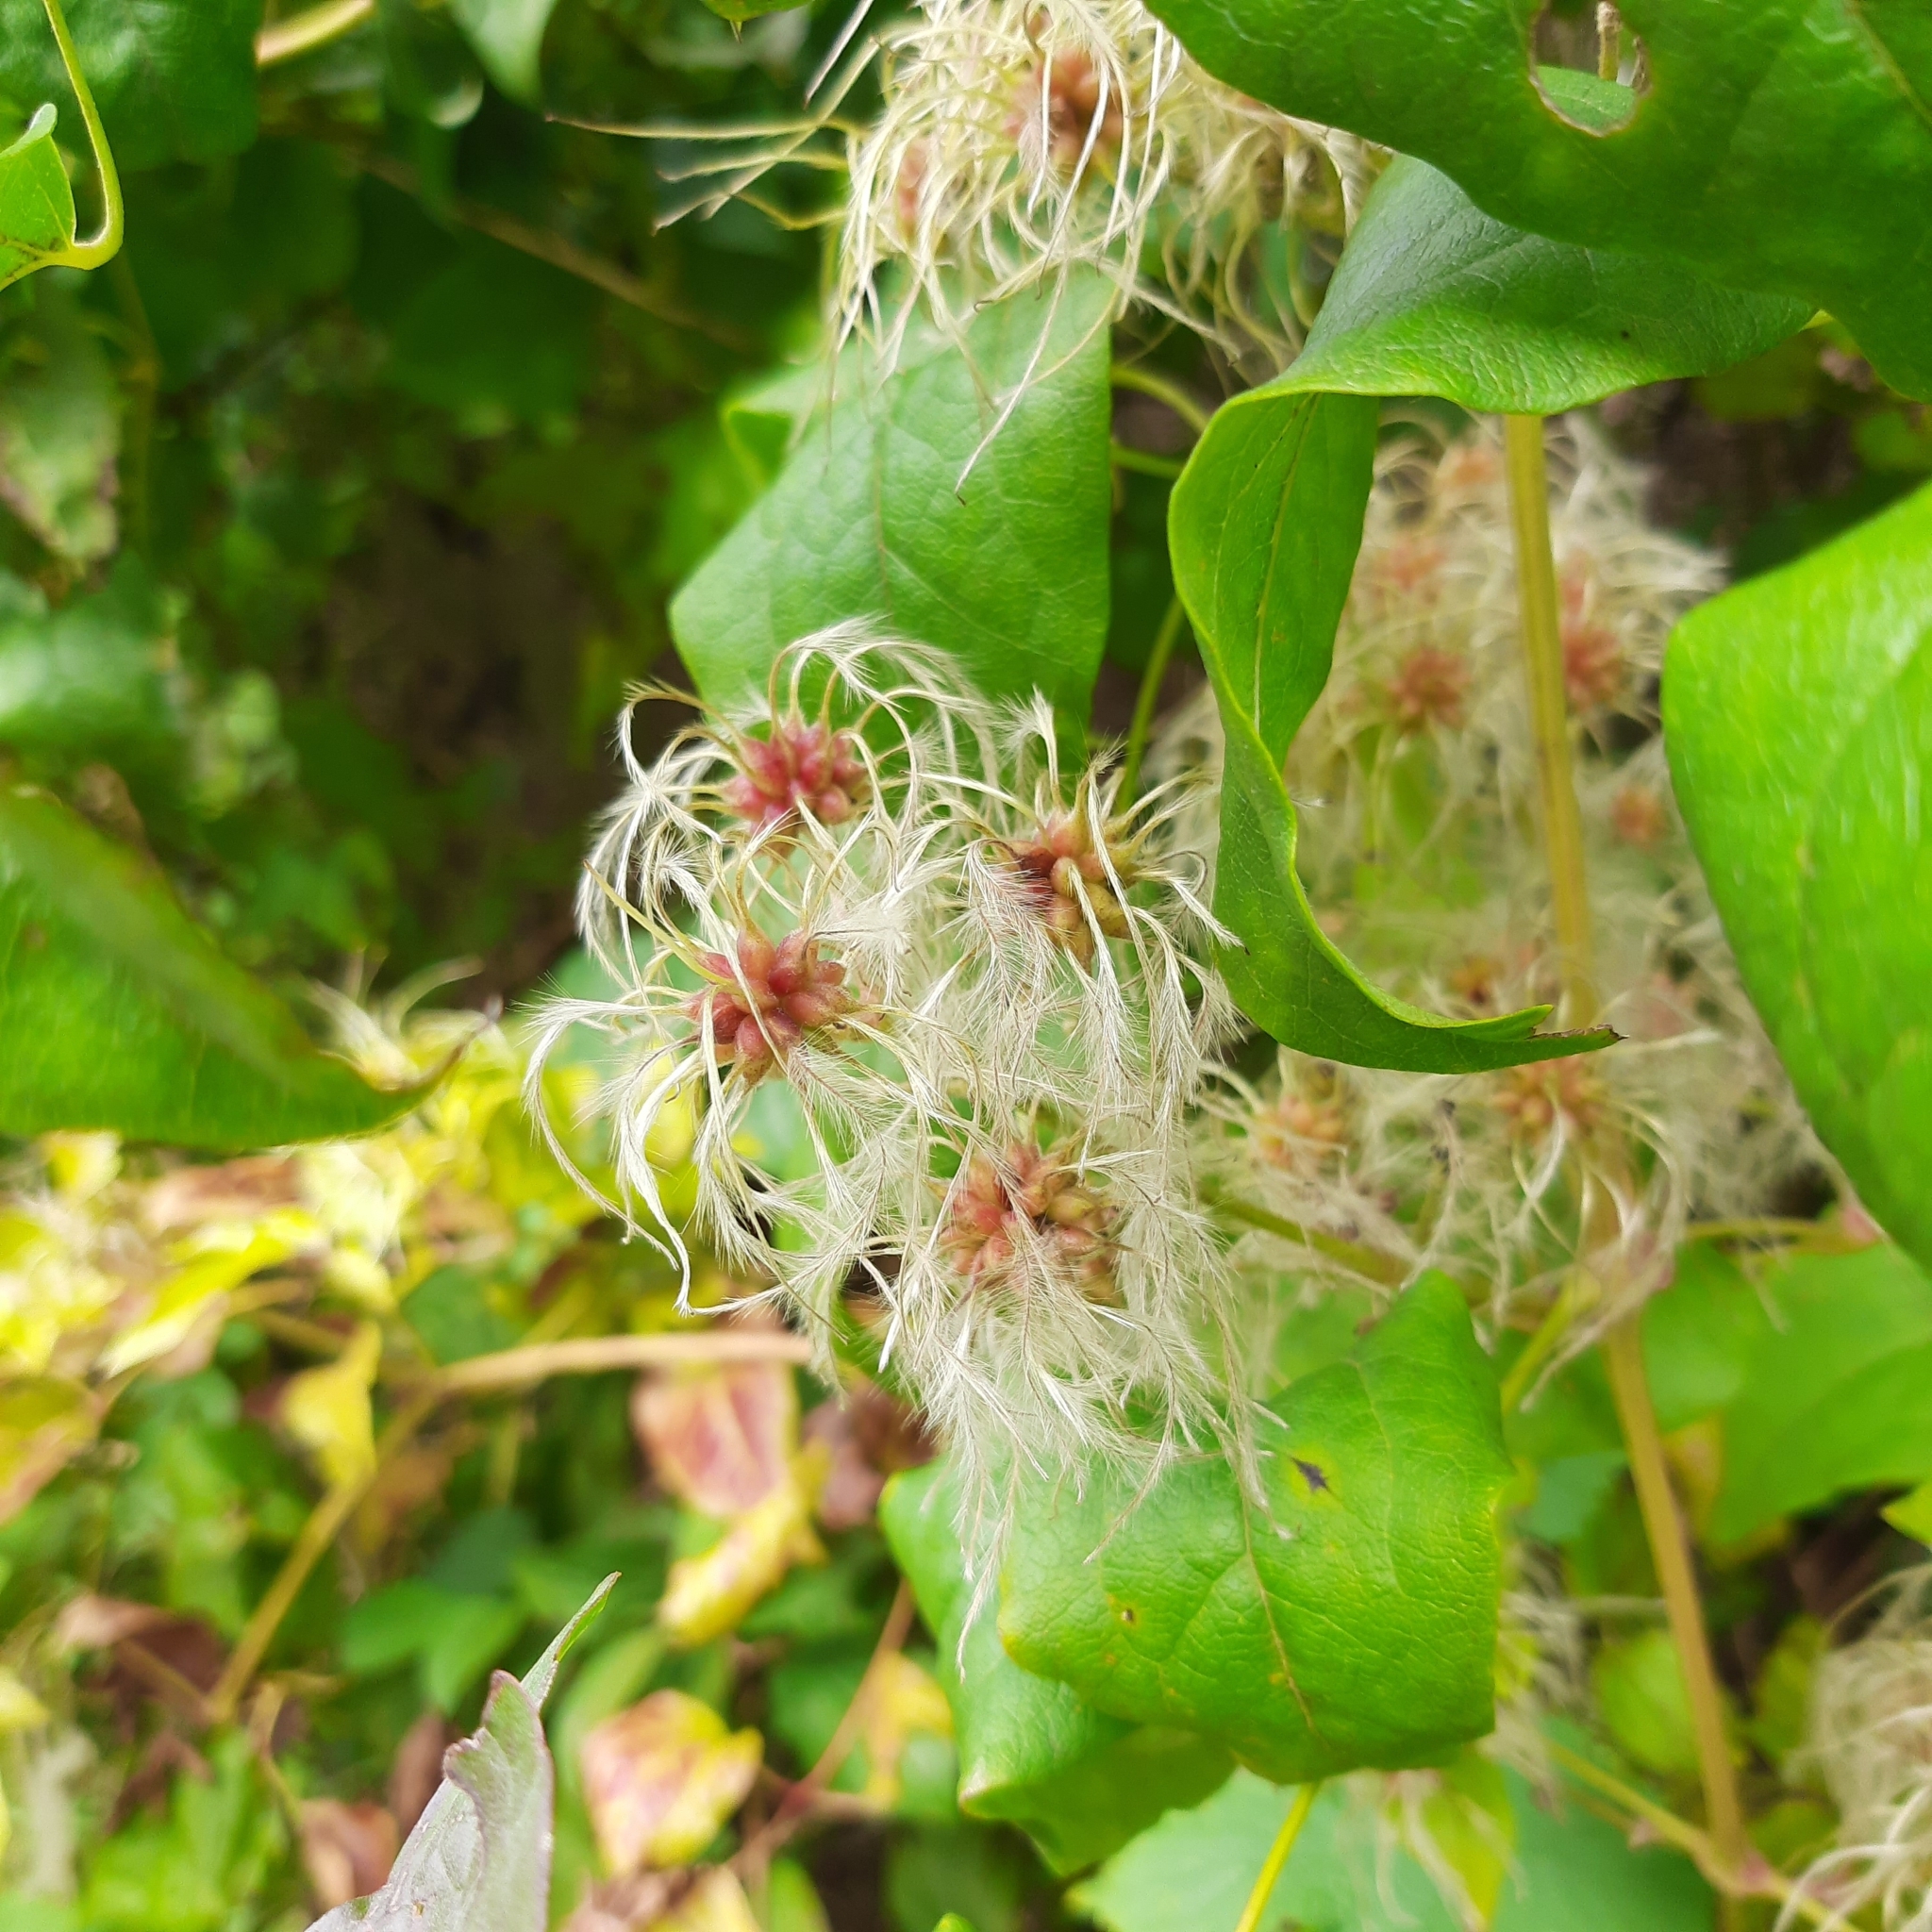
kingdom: Plantae
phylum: Tracheophyta
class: Magnoliopsida
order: Ranunculales
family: Ranunculaceae
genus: Clematis
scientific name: Clematis vitalba
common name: Evergreen clematis
